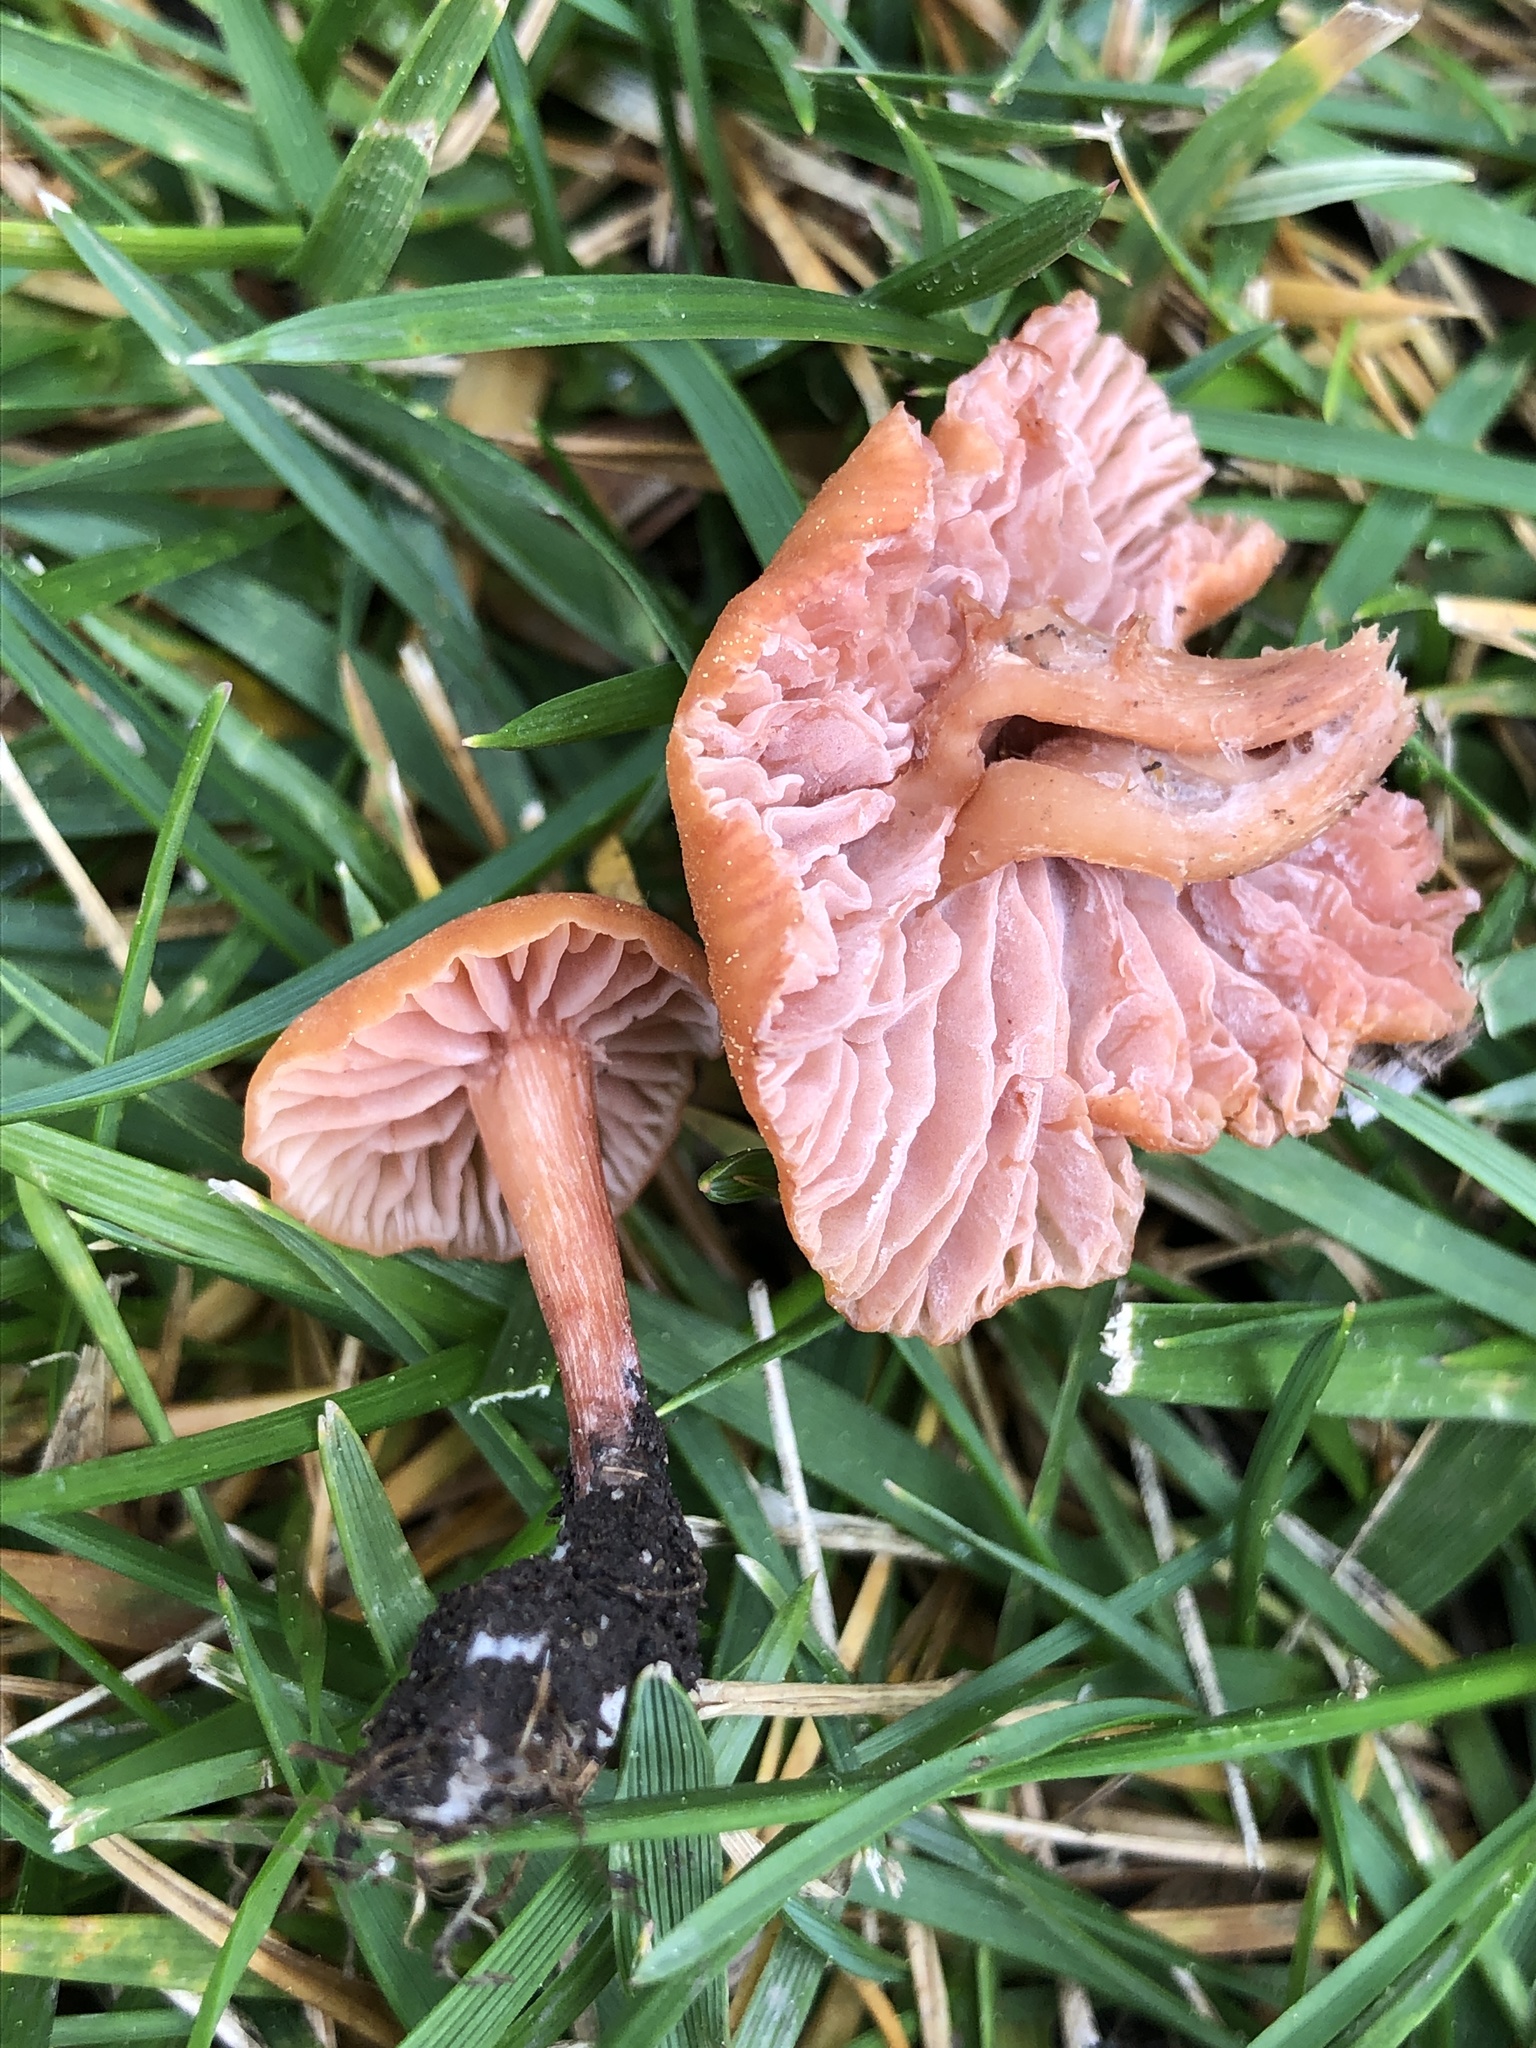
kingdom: Fungi
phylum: Basidiomycota
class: Agaricomycetes
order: Agaricales
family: Hydnangiaceae
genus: Laccaria
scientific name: Laccaria laccata
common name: Deceiver
